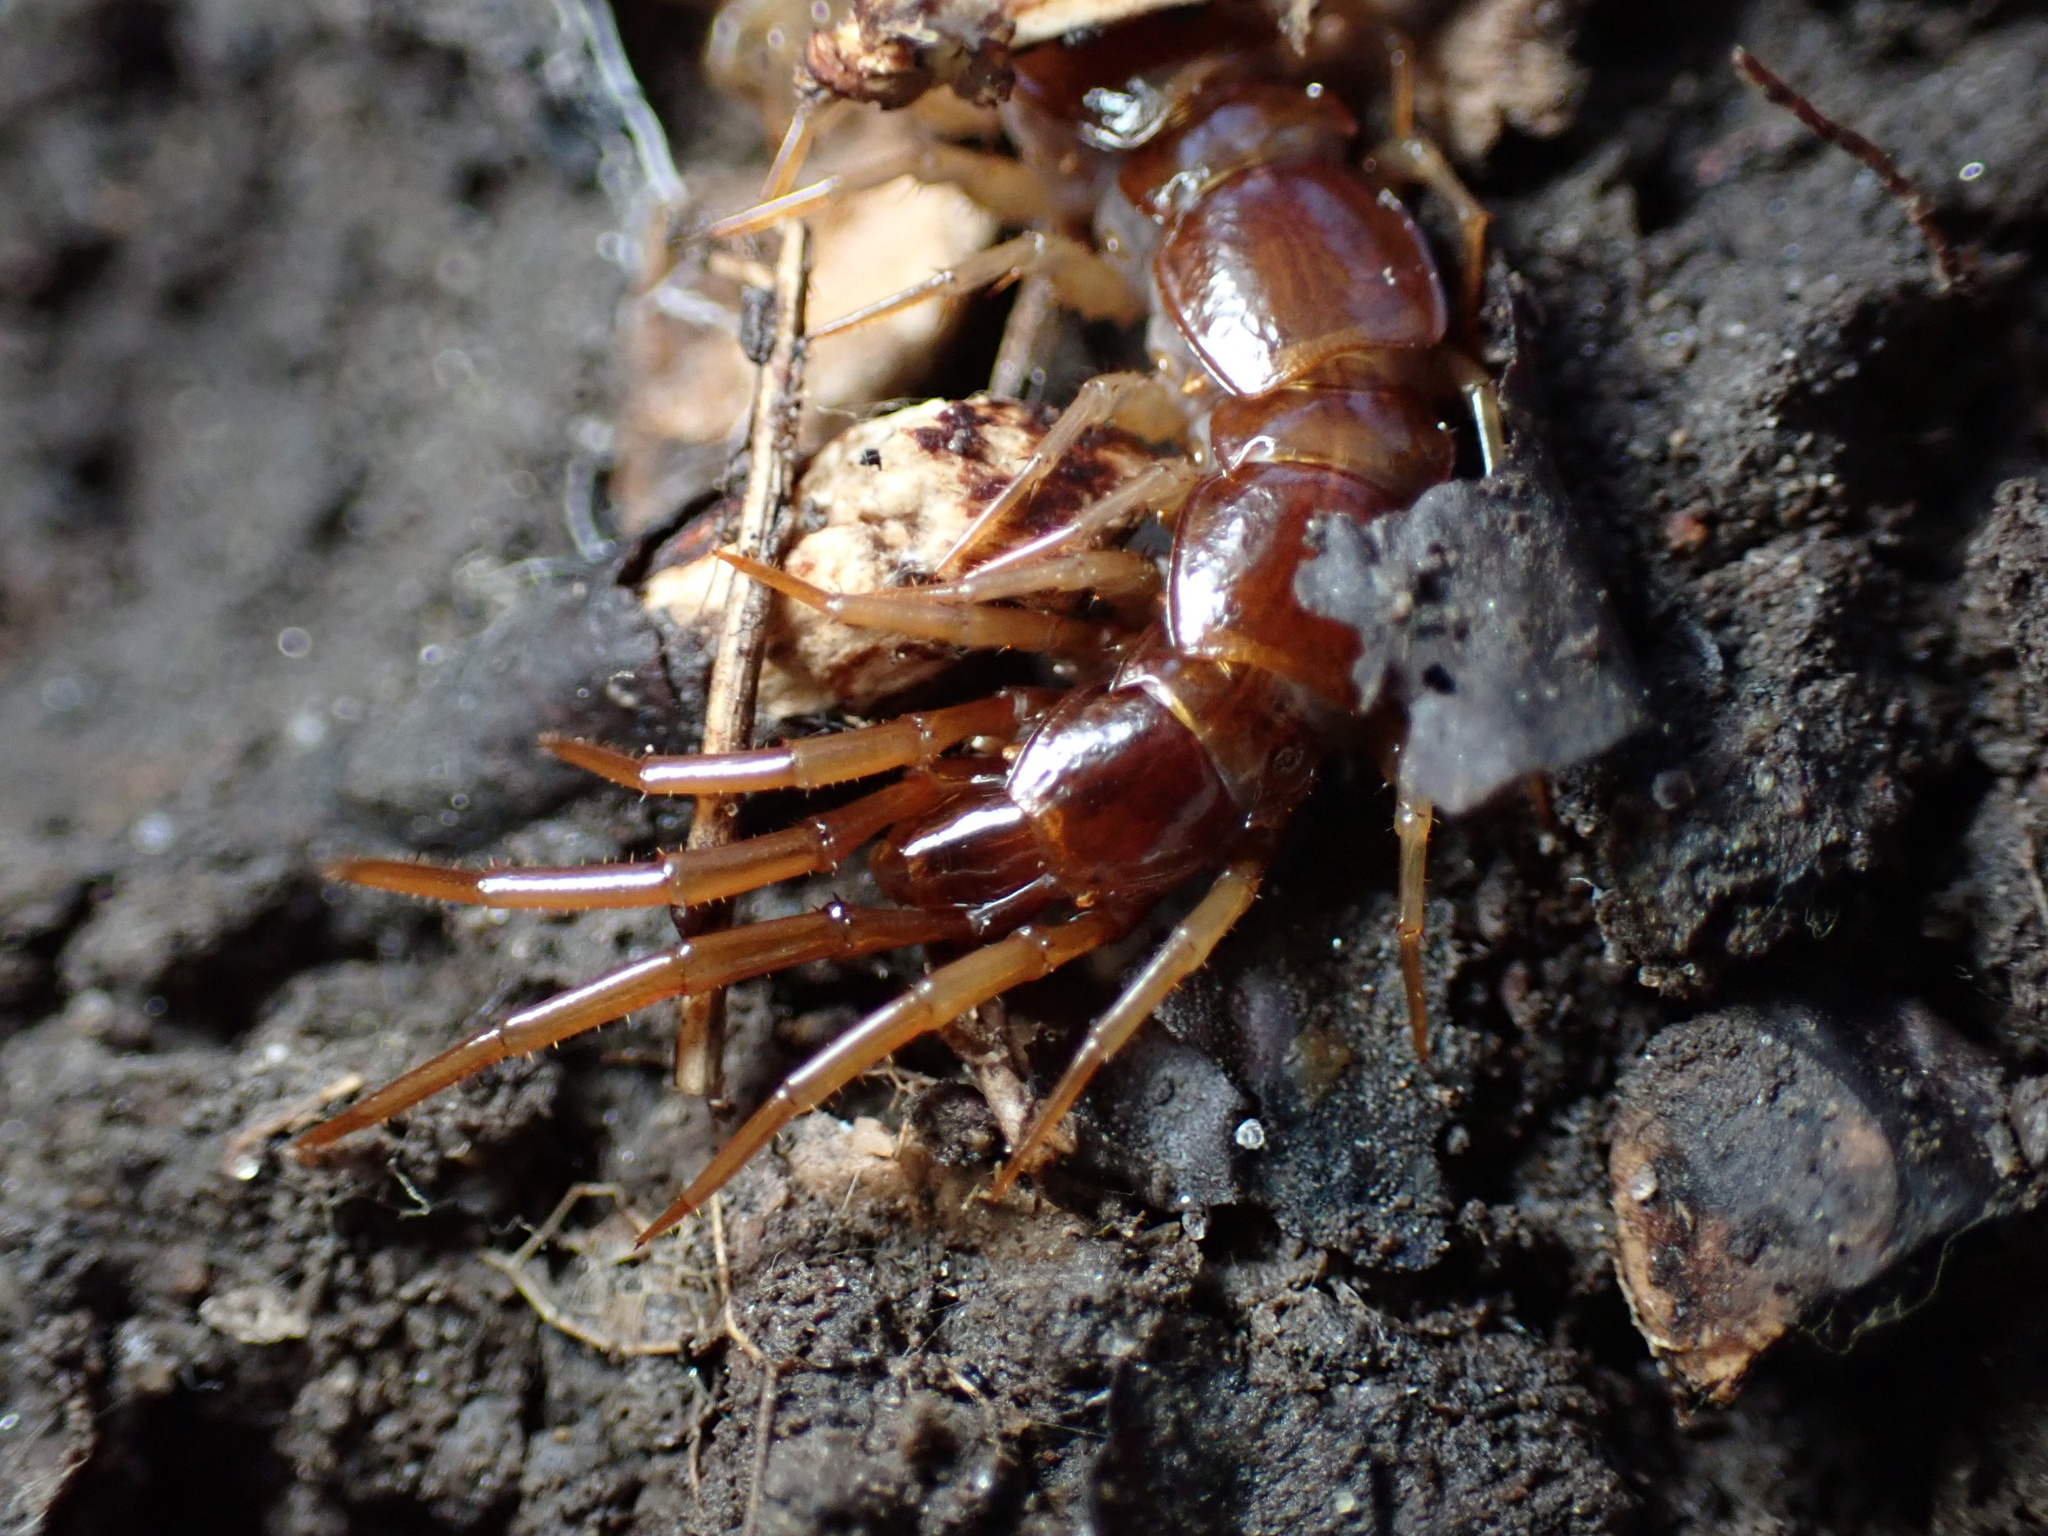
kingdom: Animalia
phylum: Arthropoda
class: Chilopoda
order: Lithobiomorpha
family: Lithobiidae
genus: Lithobius
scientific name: Lithobius forficatus
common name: Centipede
